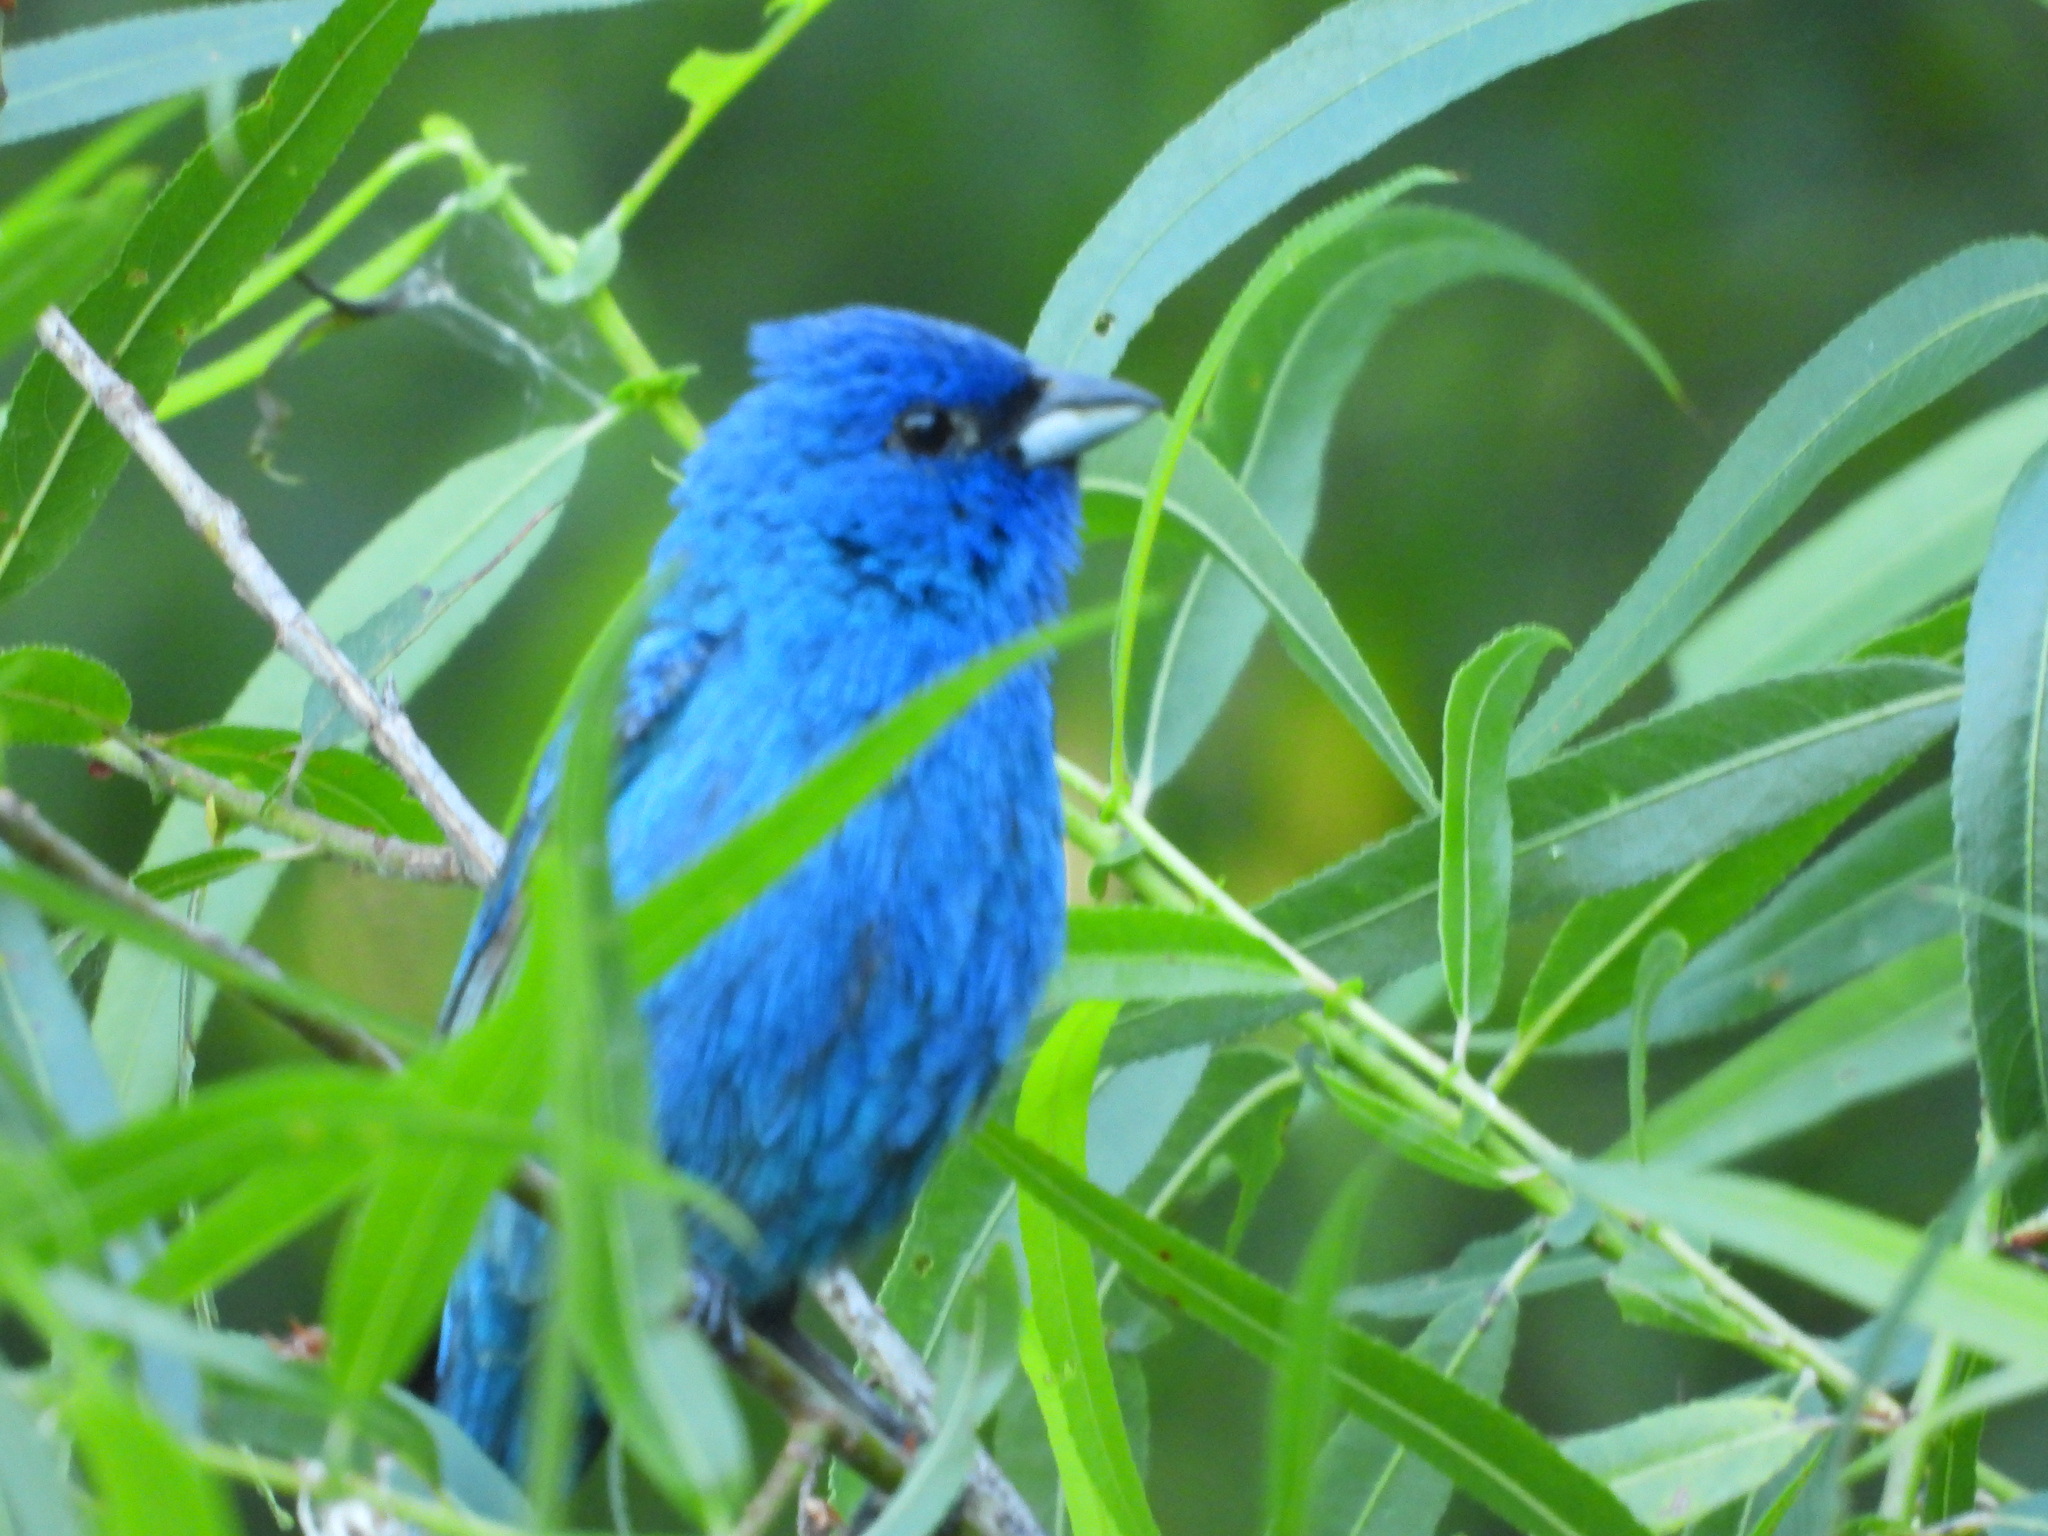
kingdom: Animalia
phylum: Chordata
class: Aves
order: Passeriformes
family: Cardinalidae
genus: Passerina
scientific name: Passerina cyanea
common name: Indigo bunting
